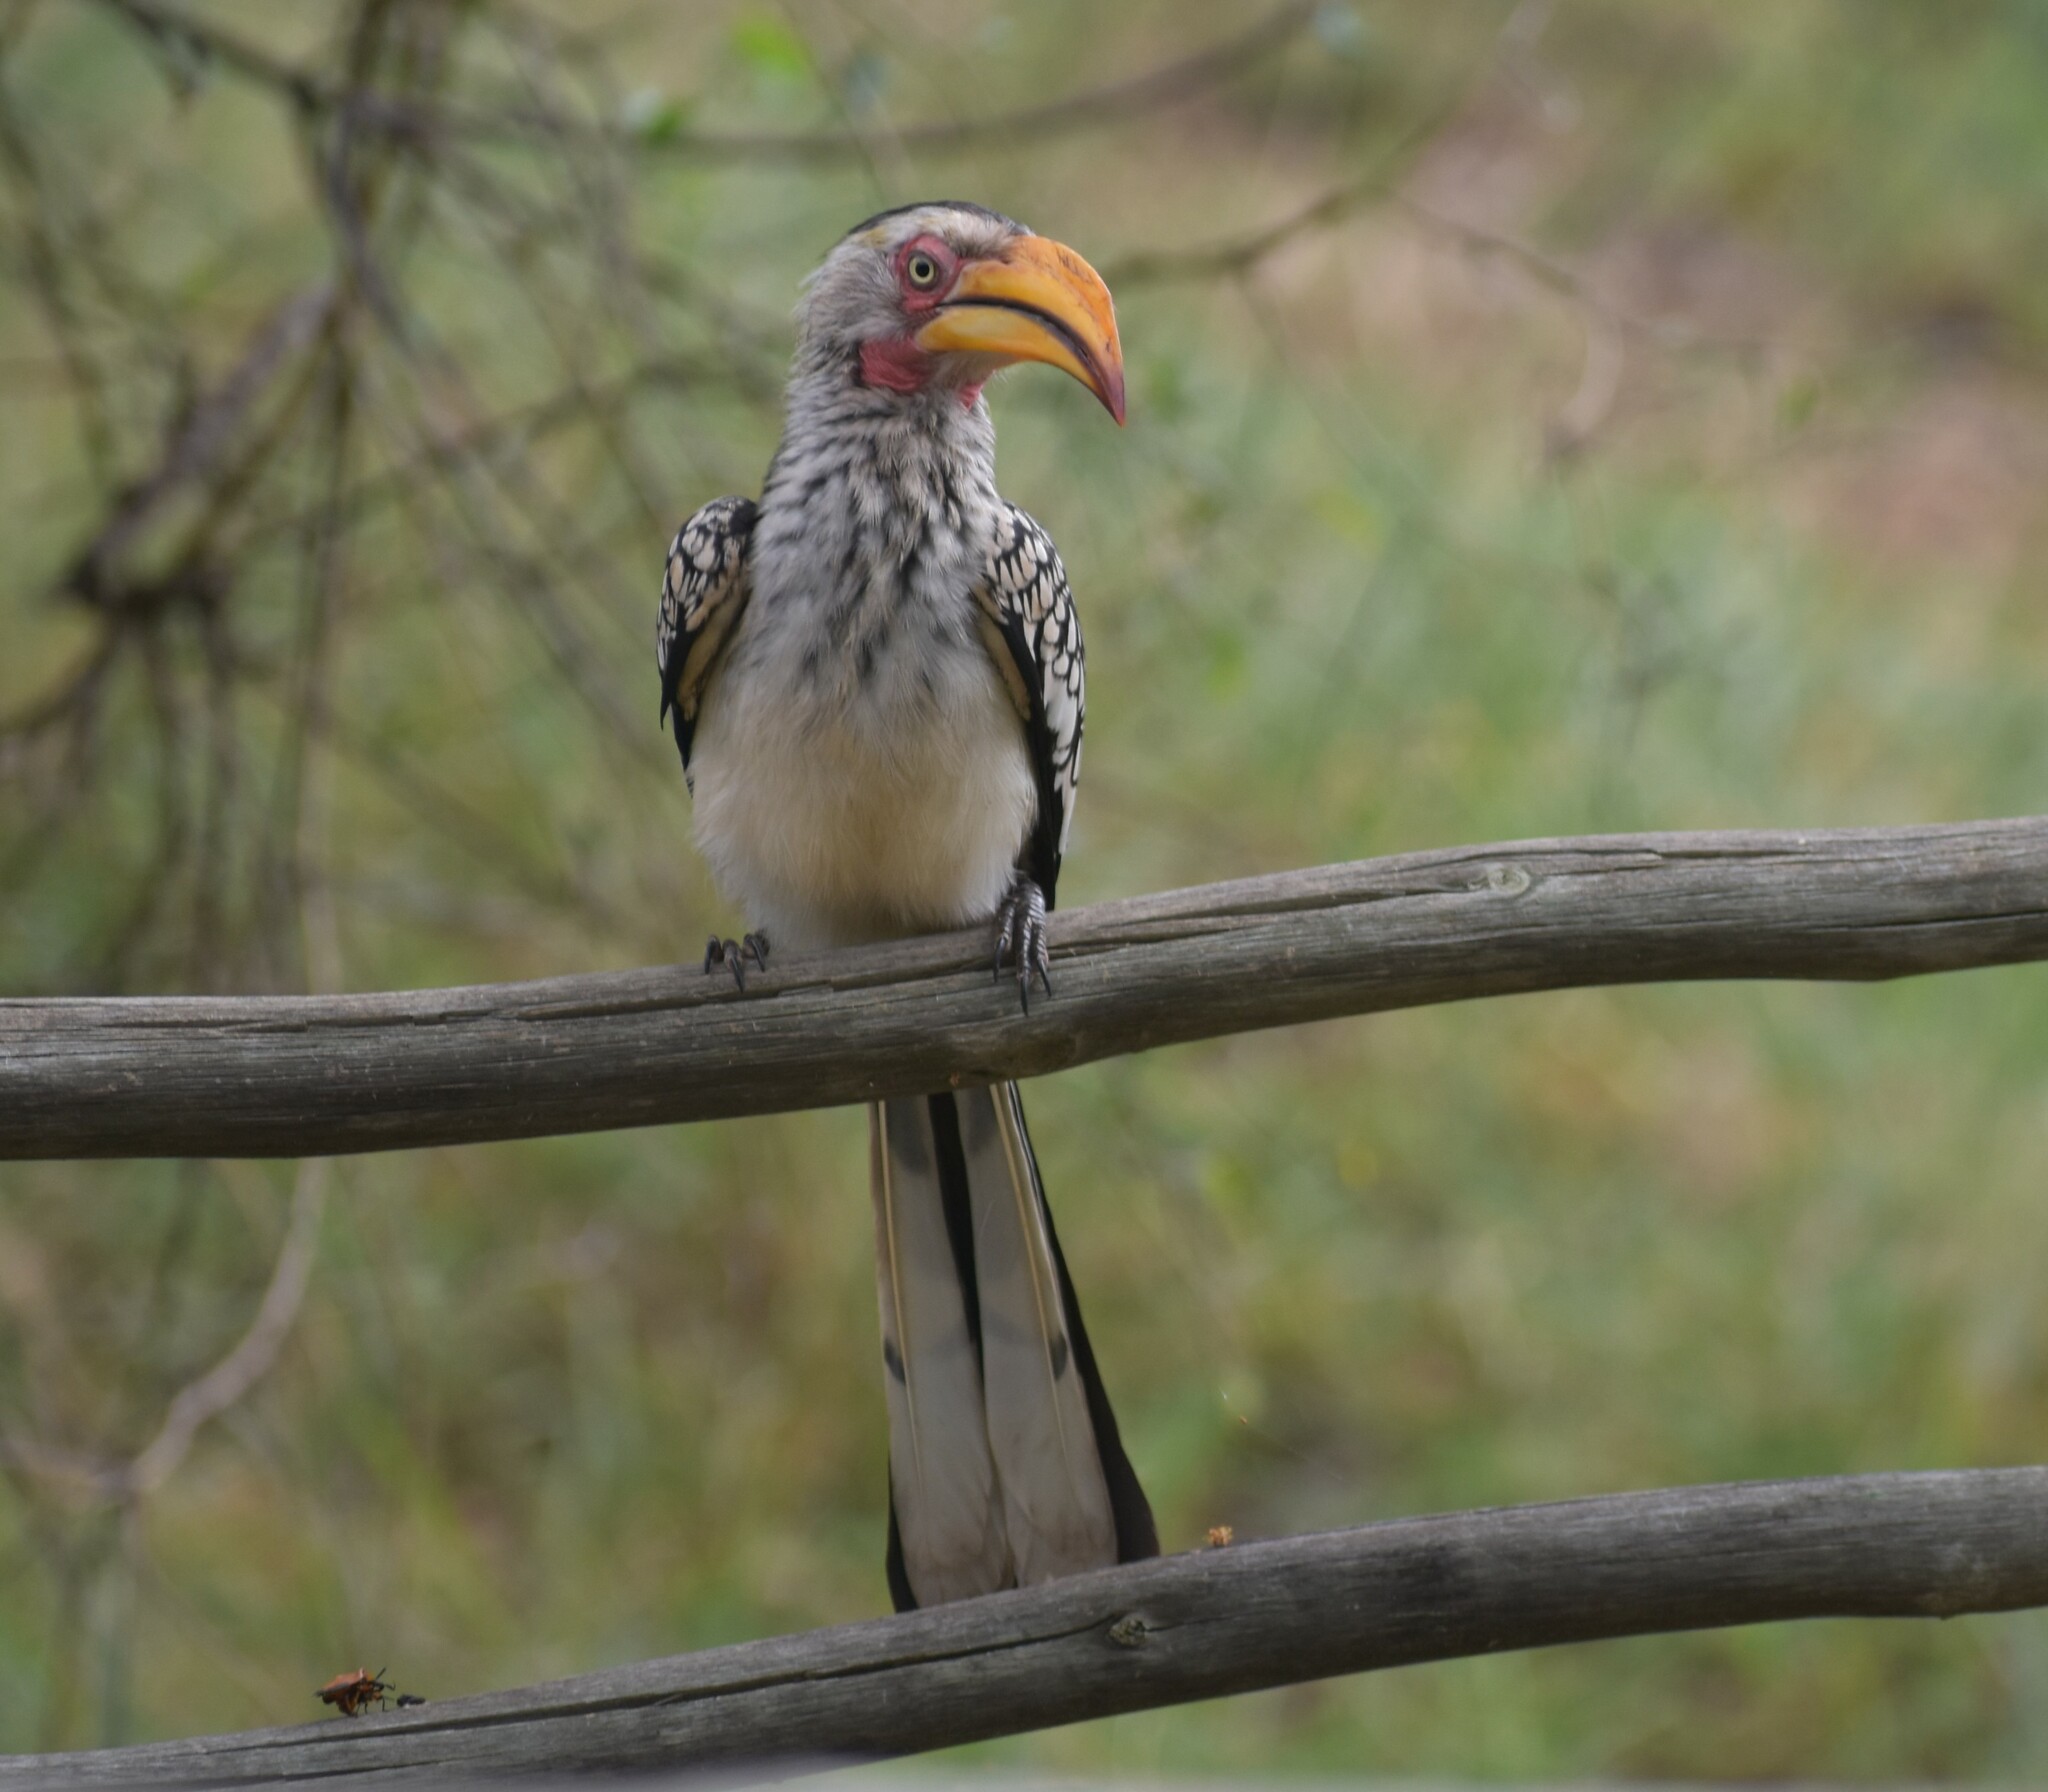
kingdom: Animalia
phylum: Chordata
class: Aves
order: Bucerotiformes
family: Bucerotidae
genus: Tockus
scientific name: Tockus leucomelas
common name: Southern yellow-billed hornbill
